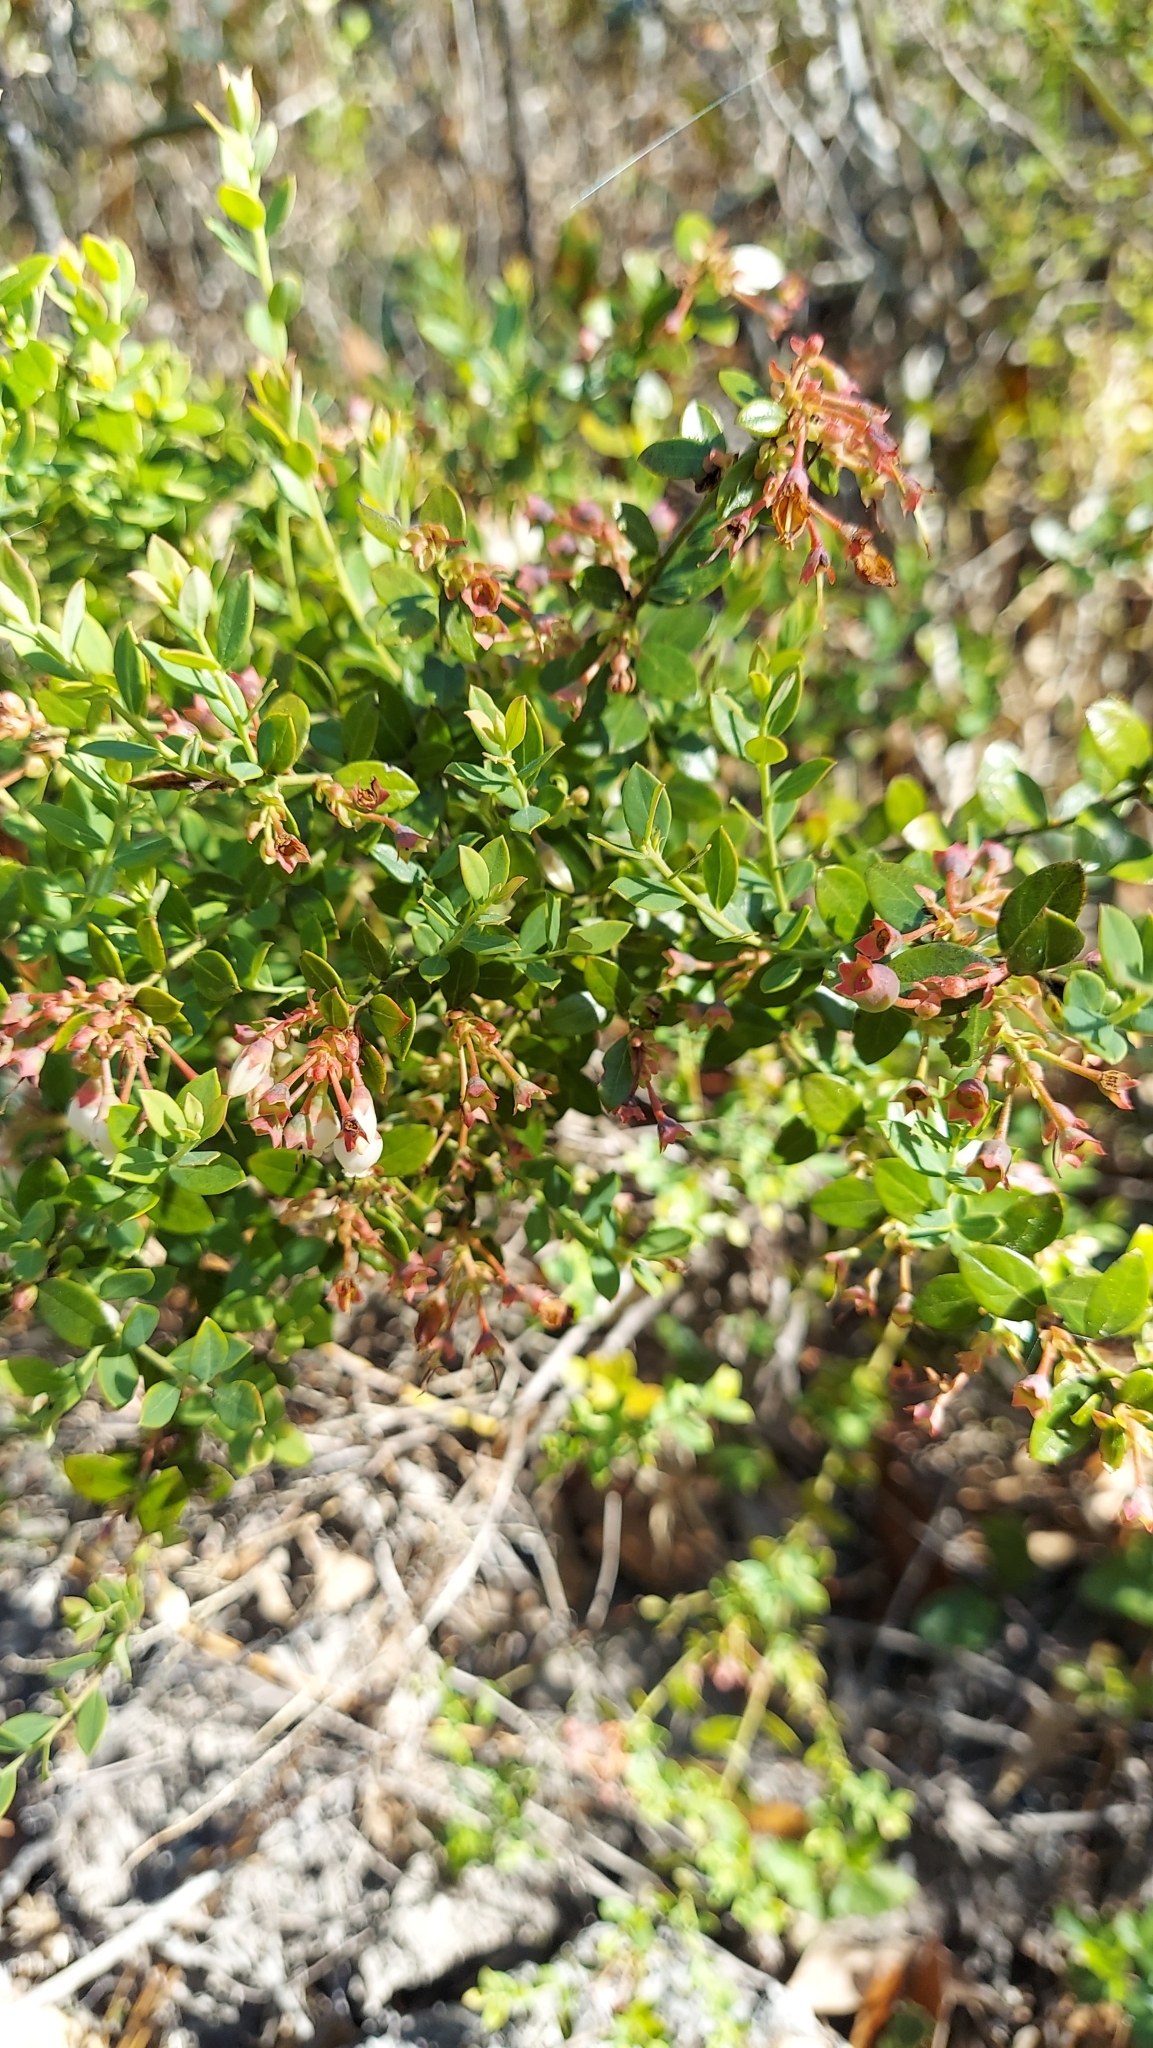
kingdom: Plantae
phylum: Tracheophyta
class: Magnoliopsida
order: Ericales
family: Ericaceae
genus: Vaccinium
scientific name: Vaccinium myrsinites
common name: Evergreen blueberry
